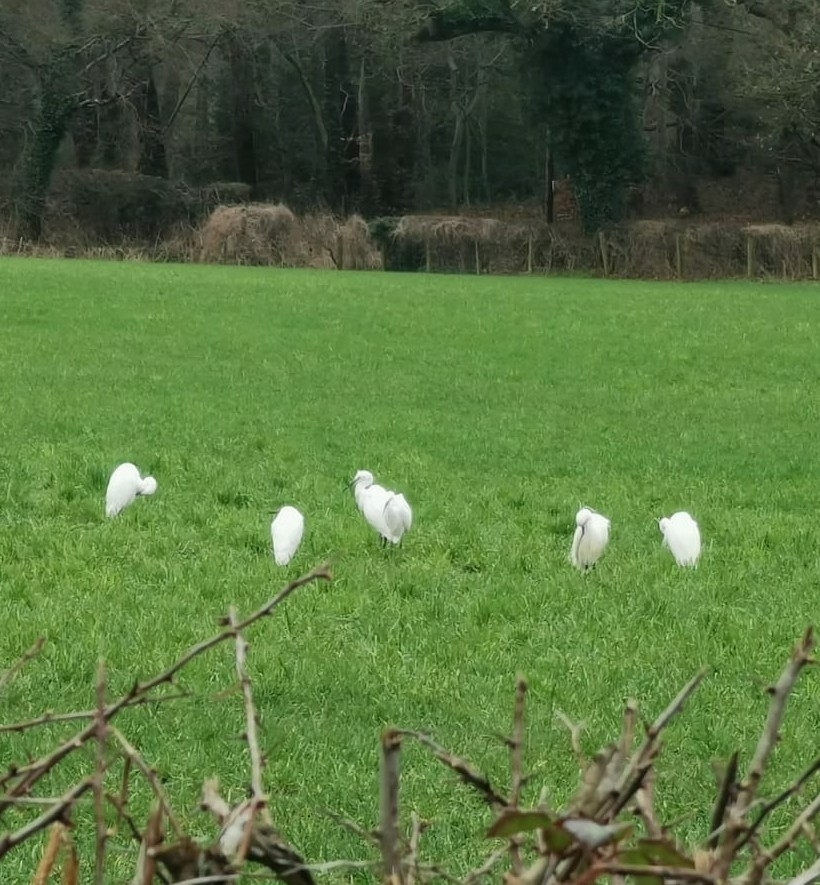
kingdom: Animalia
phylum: Chordata
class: Aves
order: Pelecaniformes
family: Ardeidae
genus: Egretta
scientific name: Egretta garzetta
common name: Little egret
